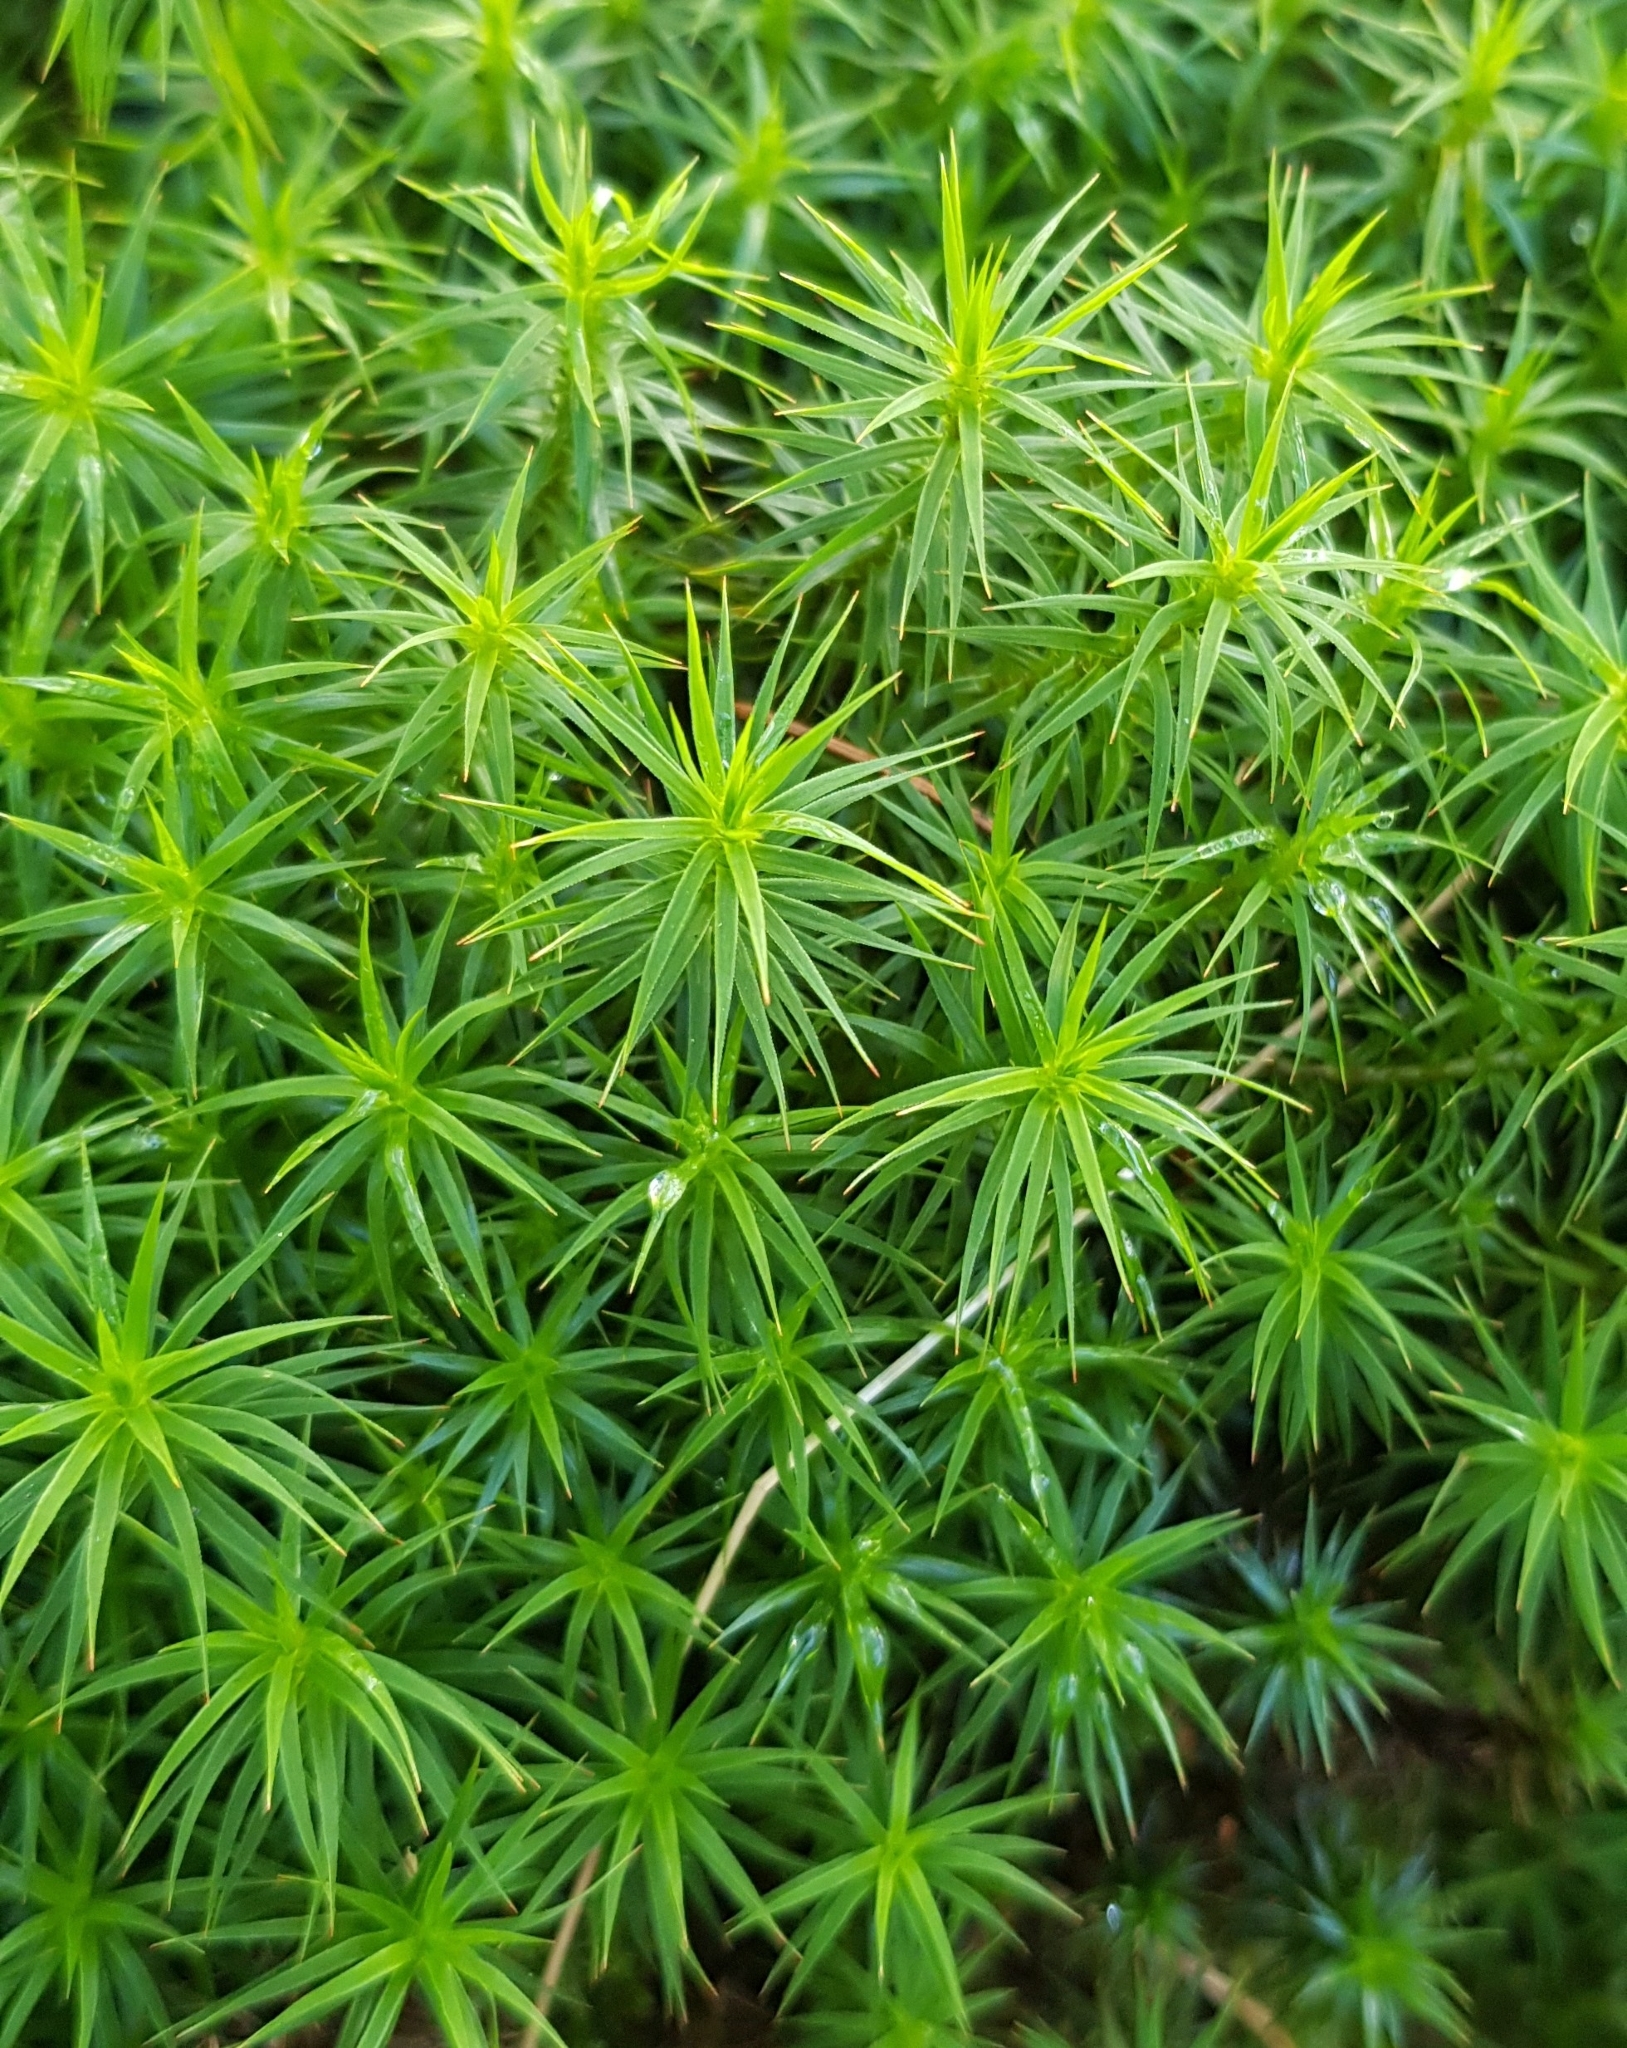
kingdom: Plantae
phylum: Bryophyta
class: Polytrichopsida
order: Polytrichales
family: Polytrichaceae
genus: Polytrichum
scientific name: Polytrichum formosum
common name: Bank haircap moss
